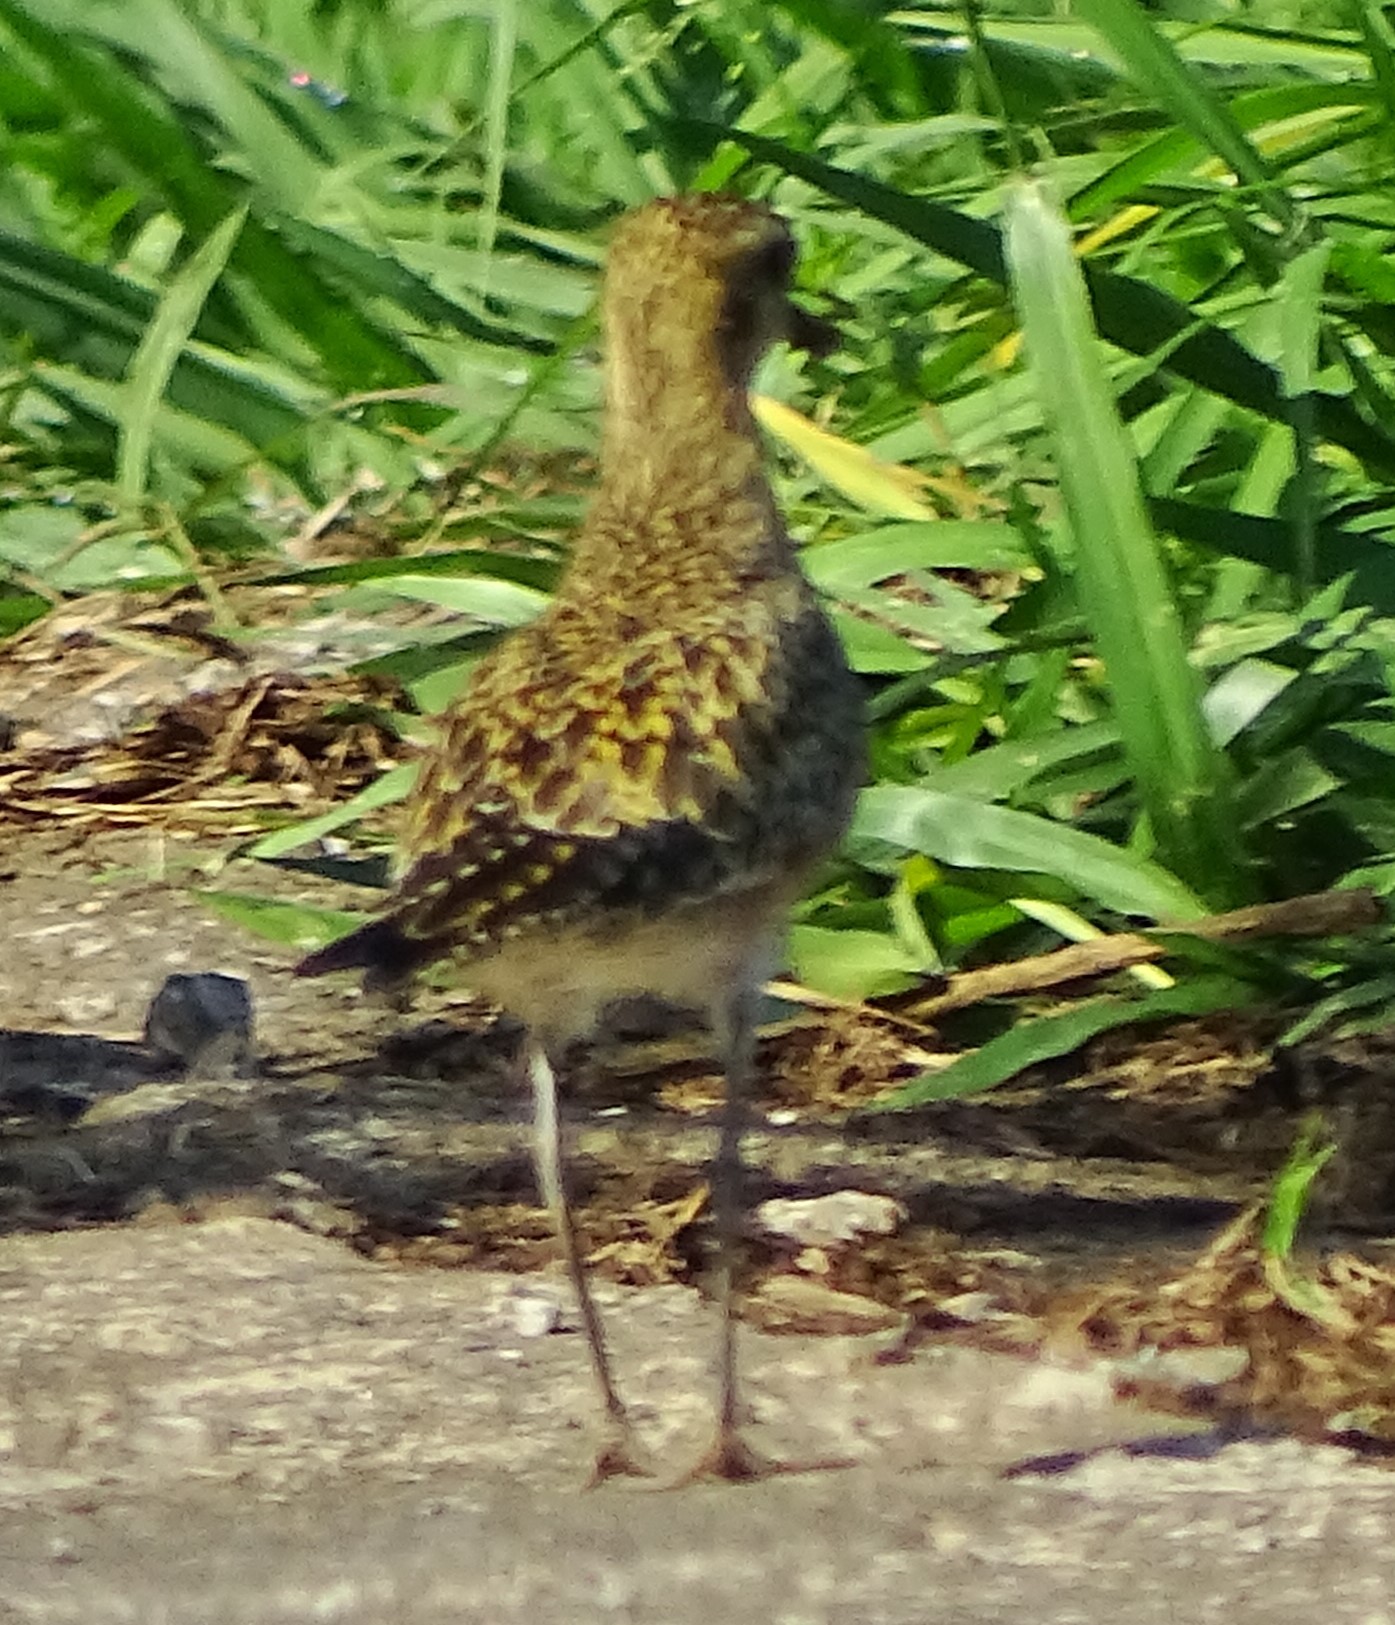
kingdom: Animalia
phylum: Chordata
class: Aves
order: Charadriiformes
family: Charadriidae
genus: Pluvialis
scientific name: Pluvialis fulva
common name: Pacific golden plover
